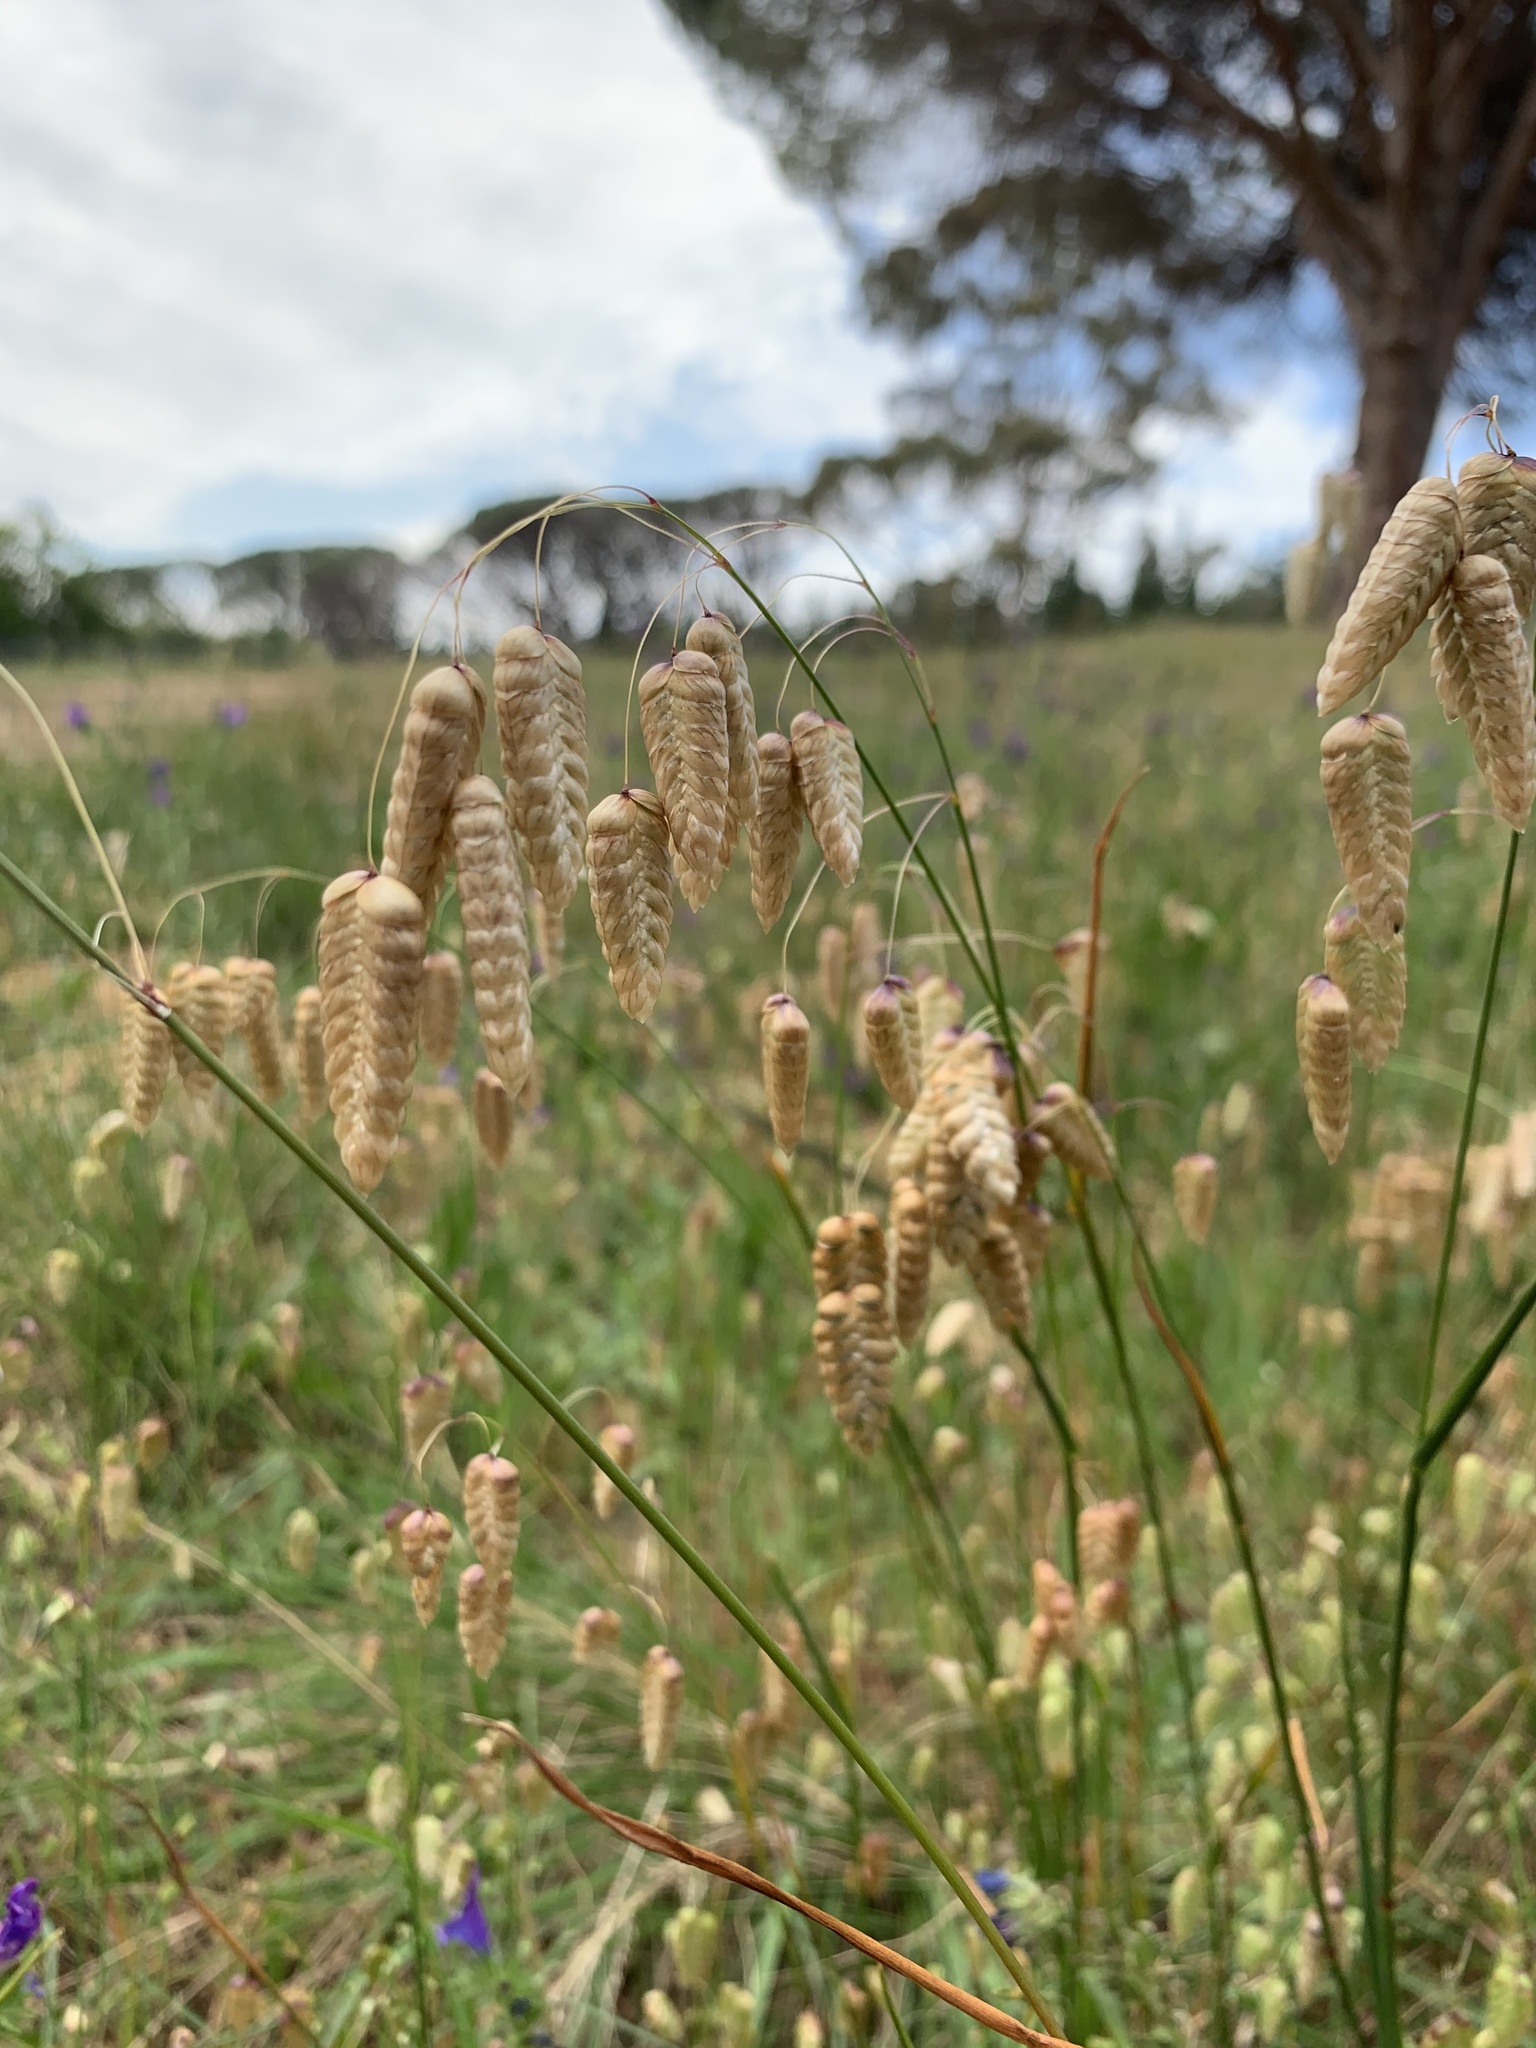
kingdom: Plantae
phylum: Tracheophyta
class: Liliopsida
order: Poales
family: Poaceae
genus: Briza
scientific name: Briza maxima
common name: Big quakinggrass
